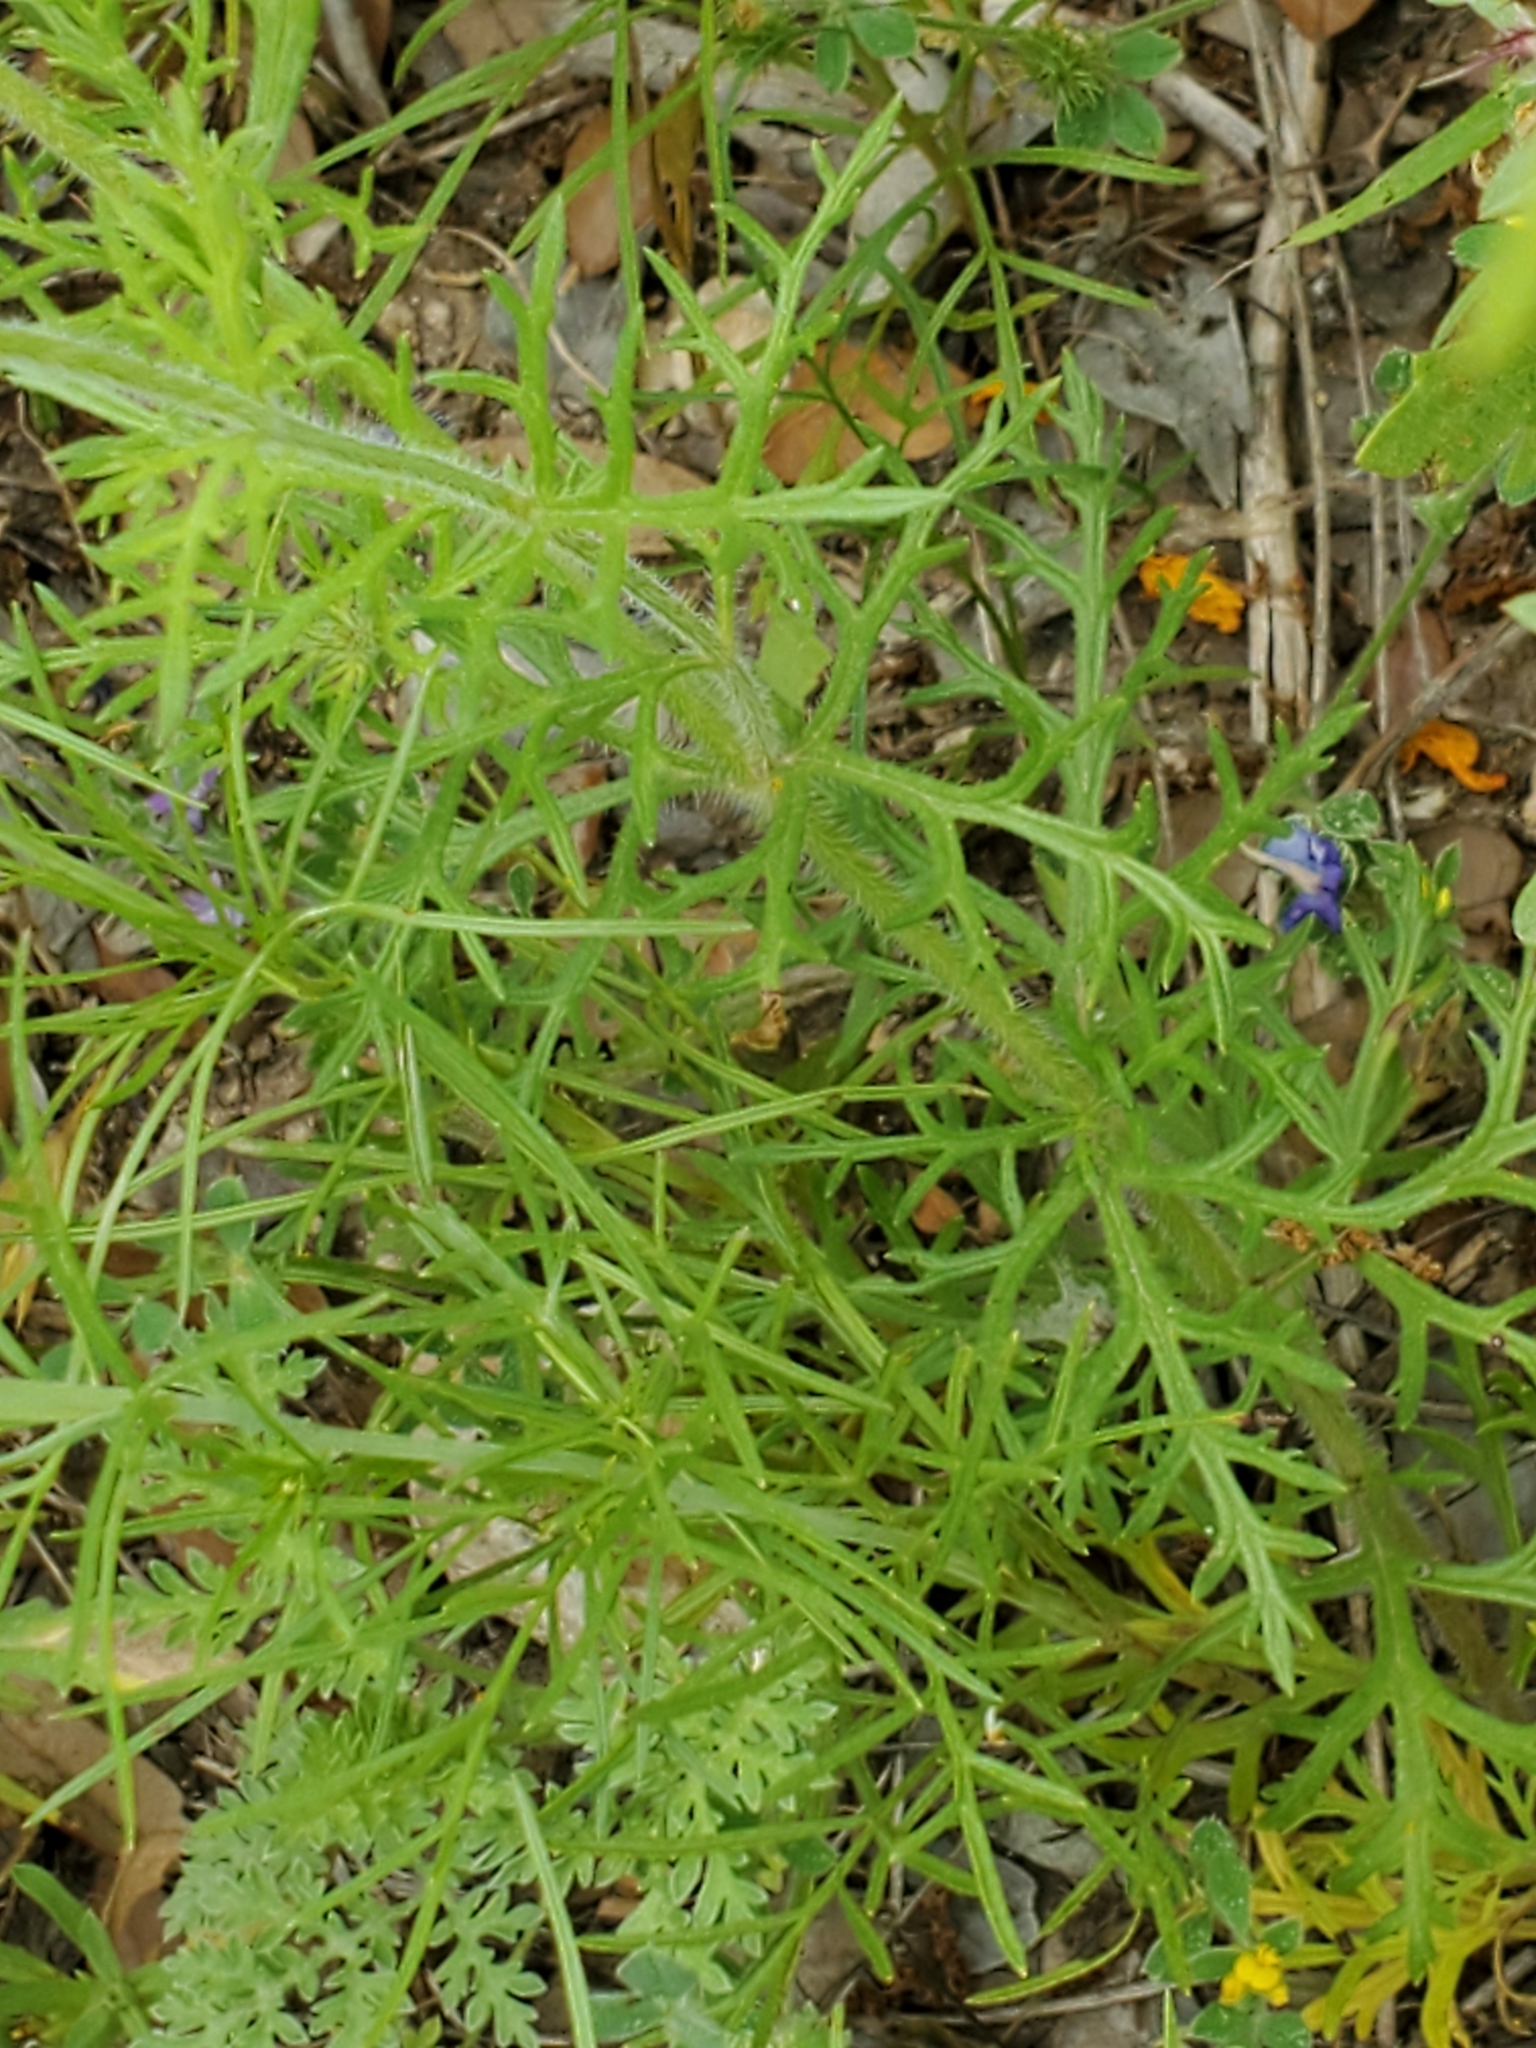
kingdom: Plantae
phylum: Tracheophyta
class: Magnoliopsida
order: Lamiales
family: Verbenaceae
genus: Verbena
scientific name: Verbena bipinnatifida
